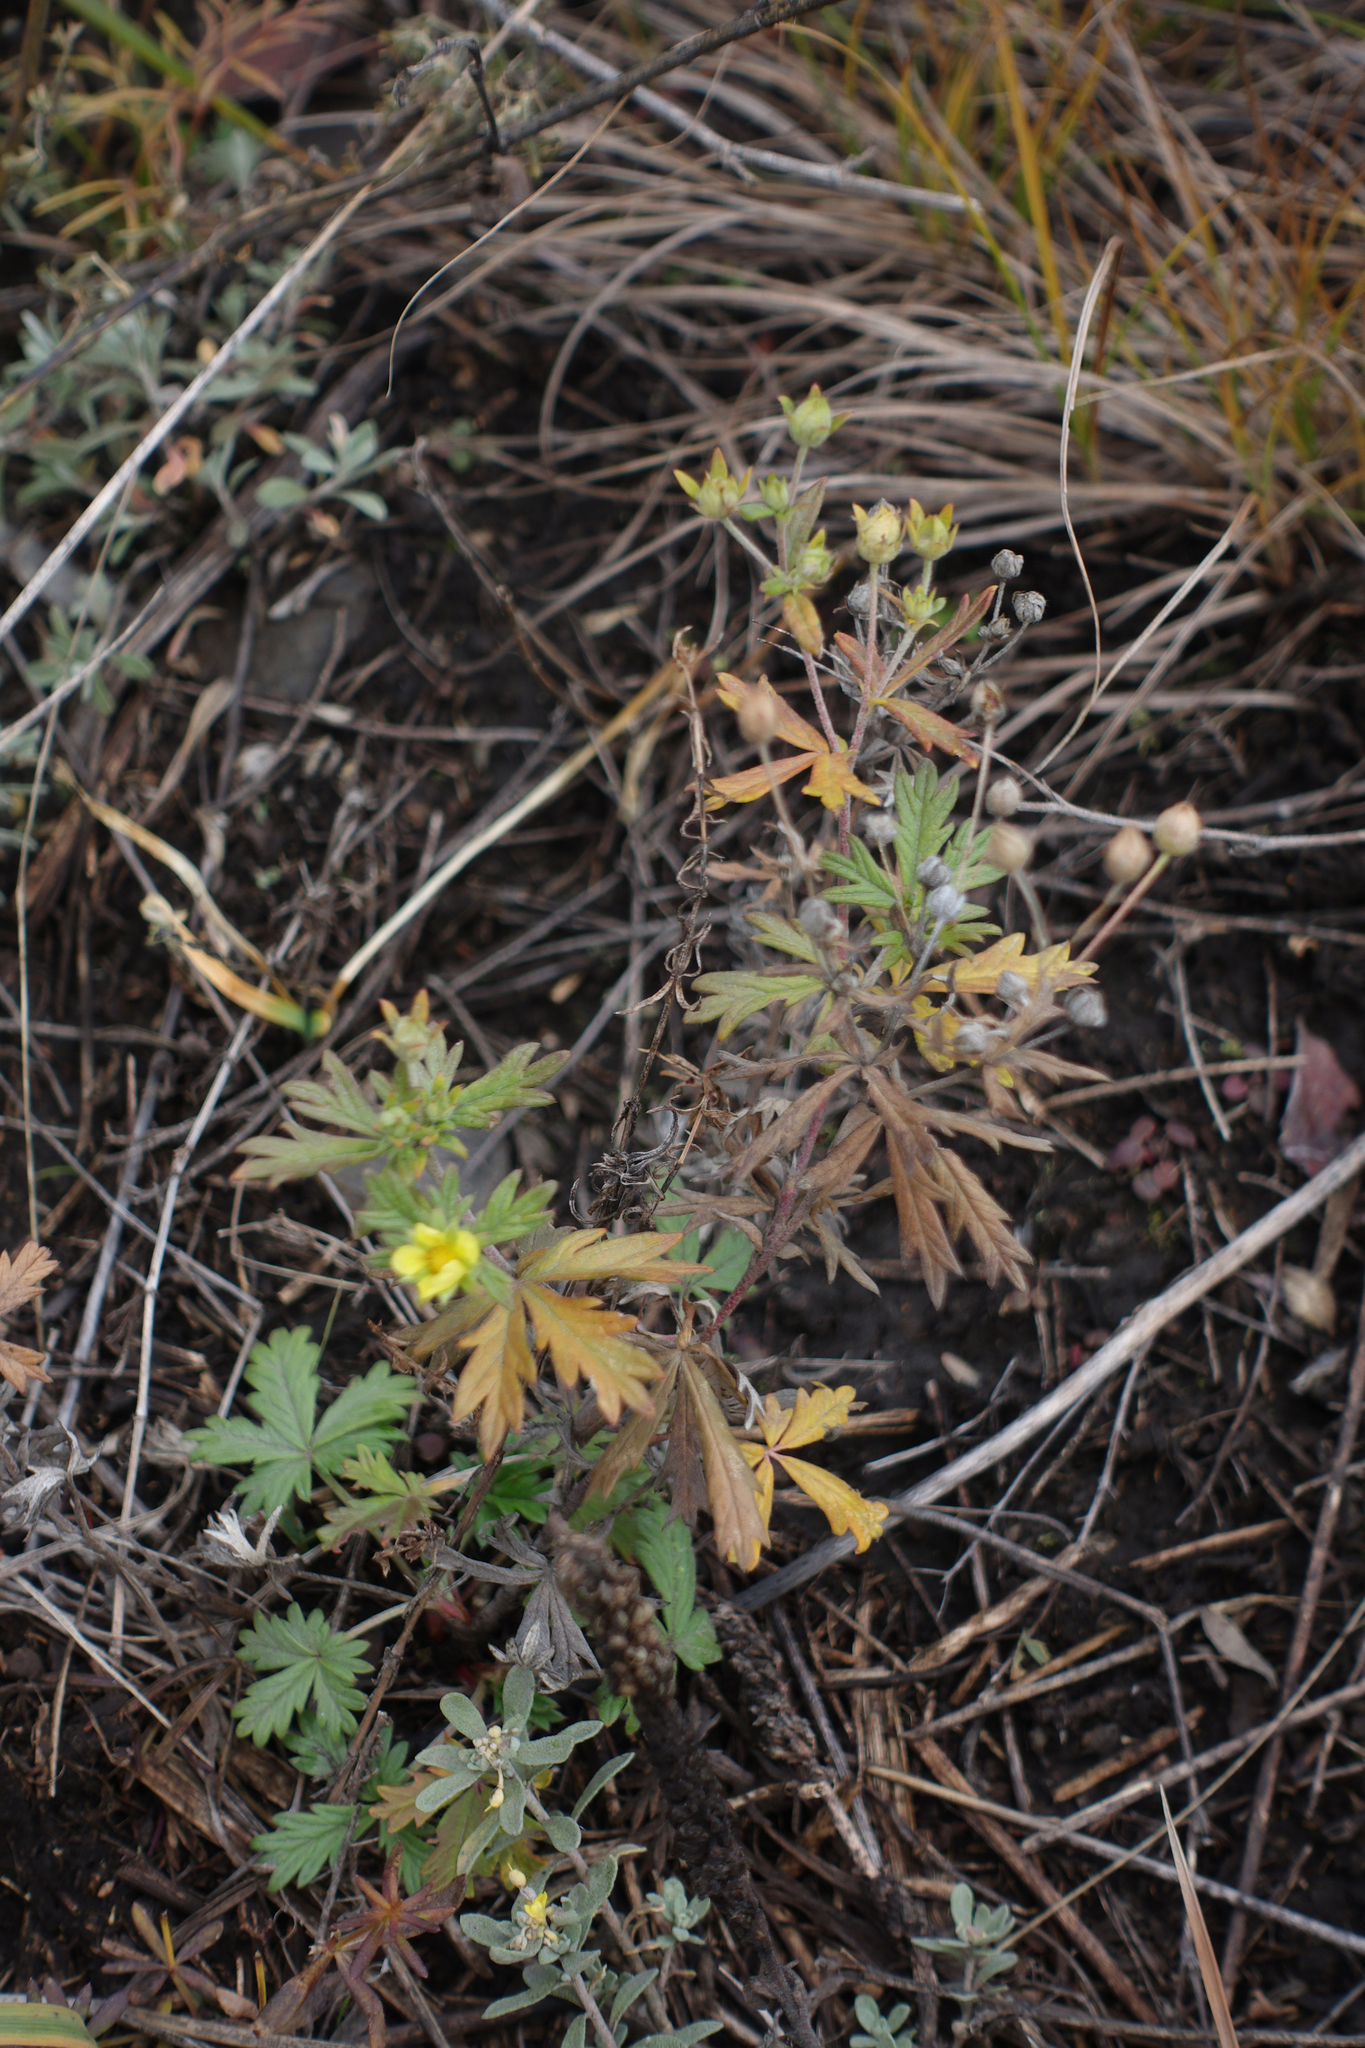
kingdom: Plantae
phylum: Tracheophyta
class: Magnoliopsida
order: Rosales
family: Rosaceae
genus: Potentilla
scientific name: Potentilla argentea
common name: Hoary cinquefoil
